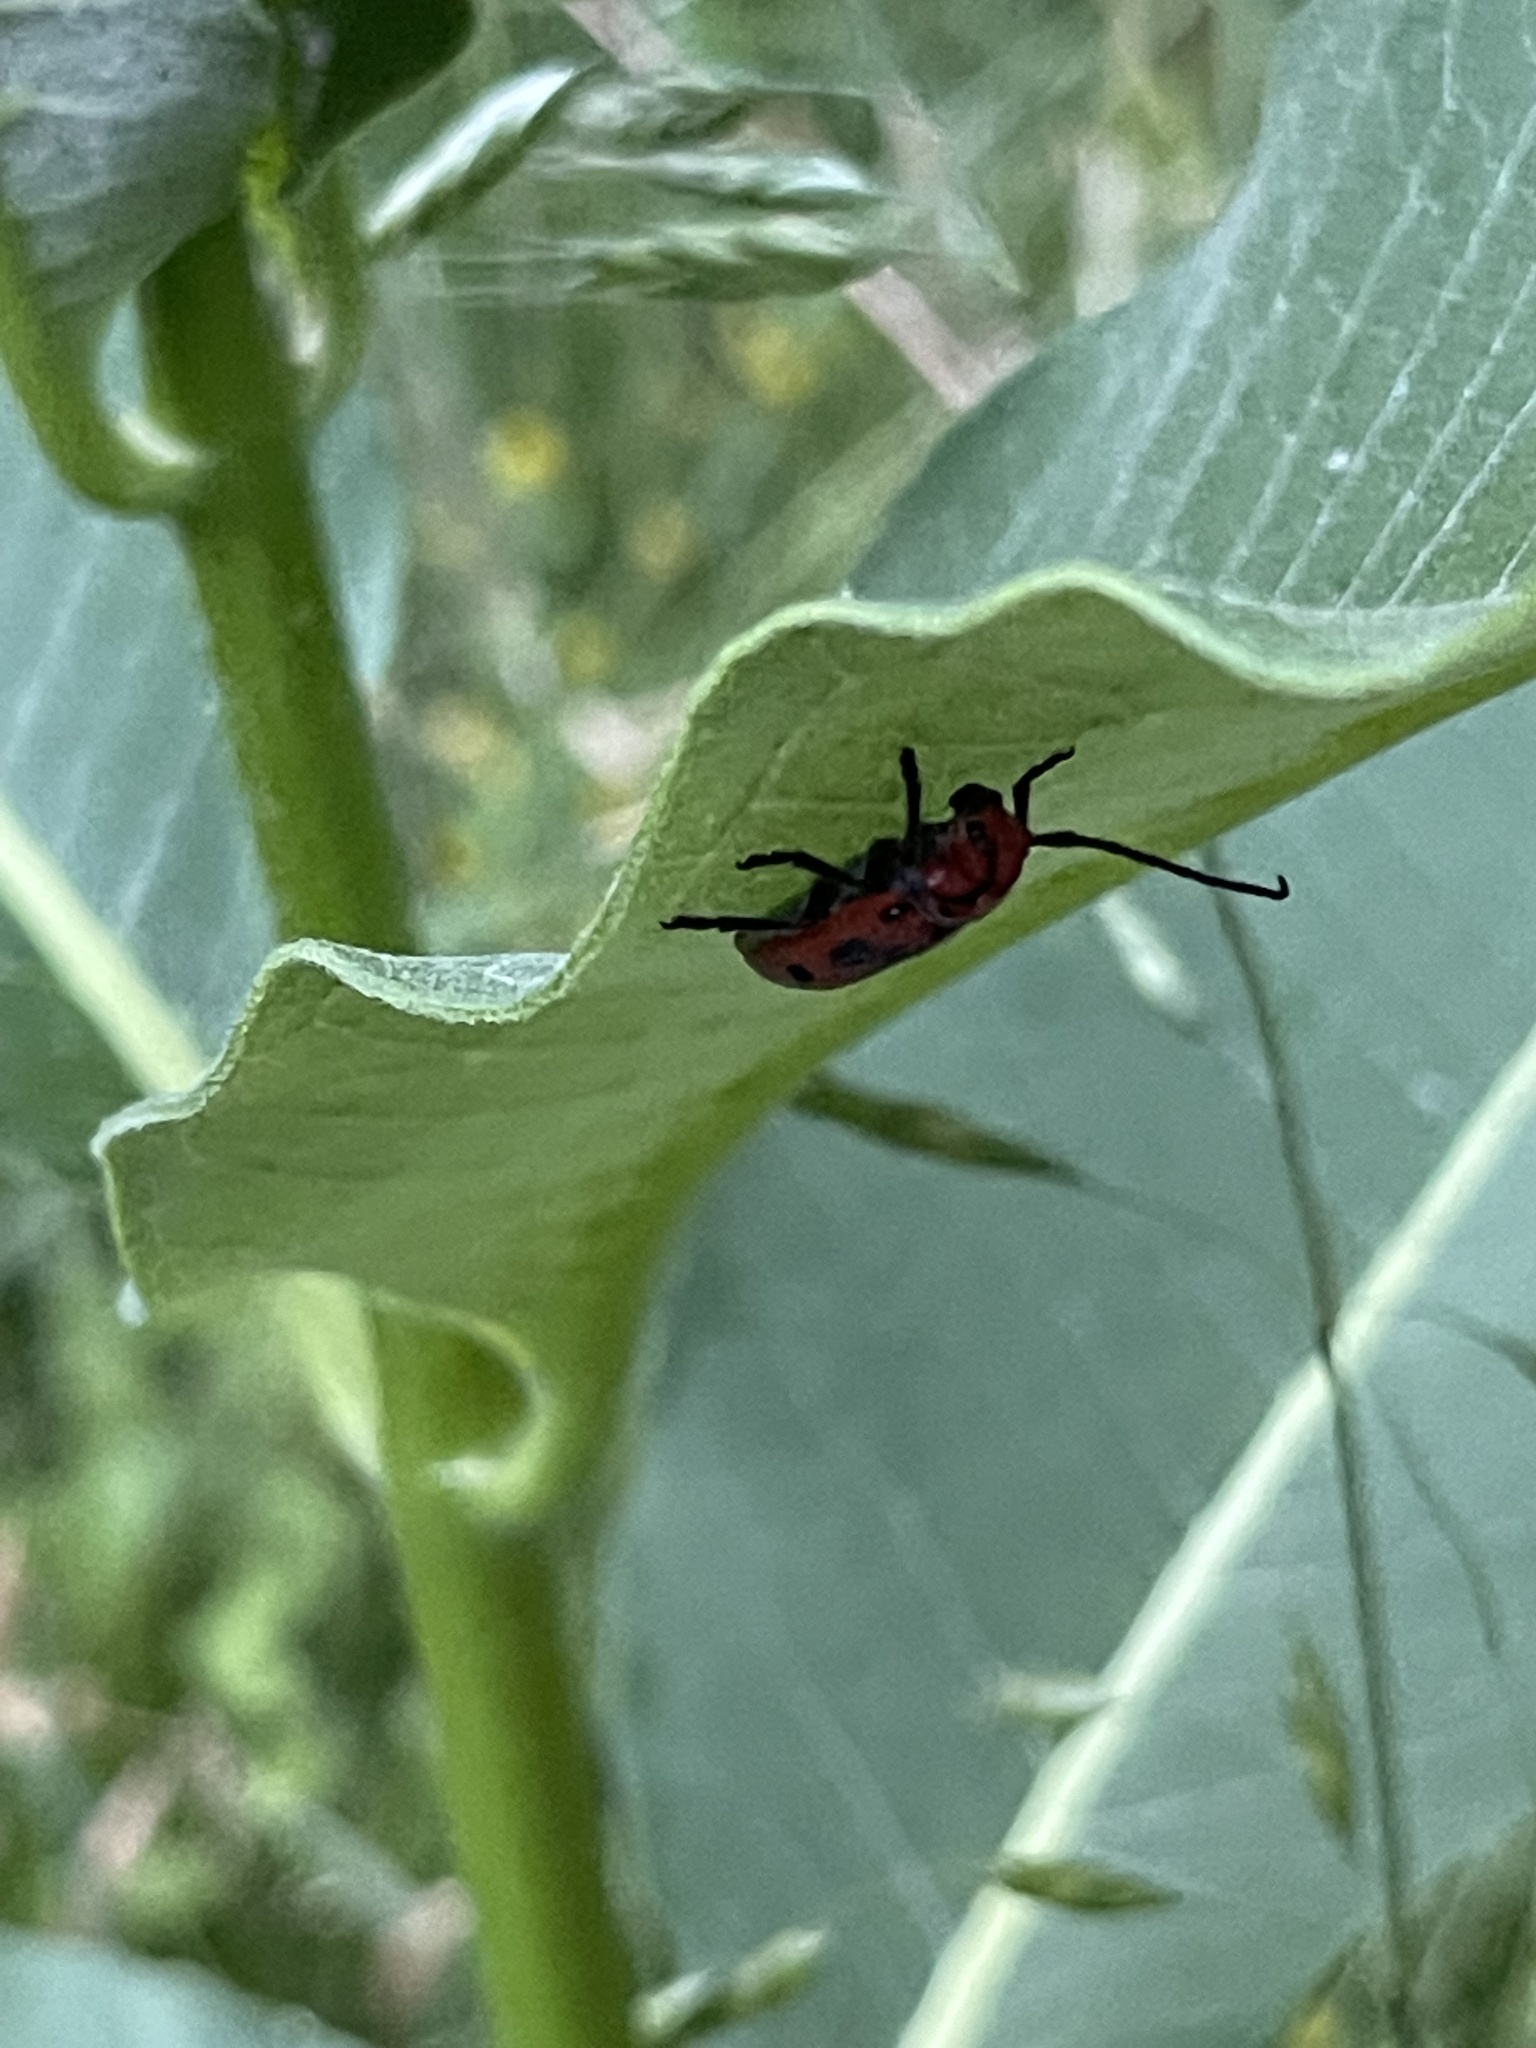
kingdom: Animalia
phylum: Arthropoda
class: Insecta
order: Coleoptera
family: Cerambycidae
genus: Tetraopes
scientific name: Tetraopes tetrophthalmus
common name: Red milkweed beetle
